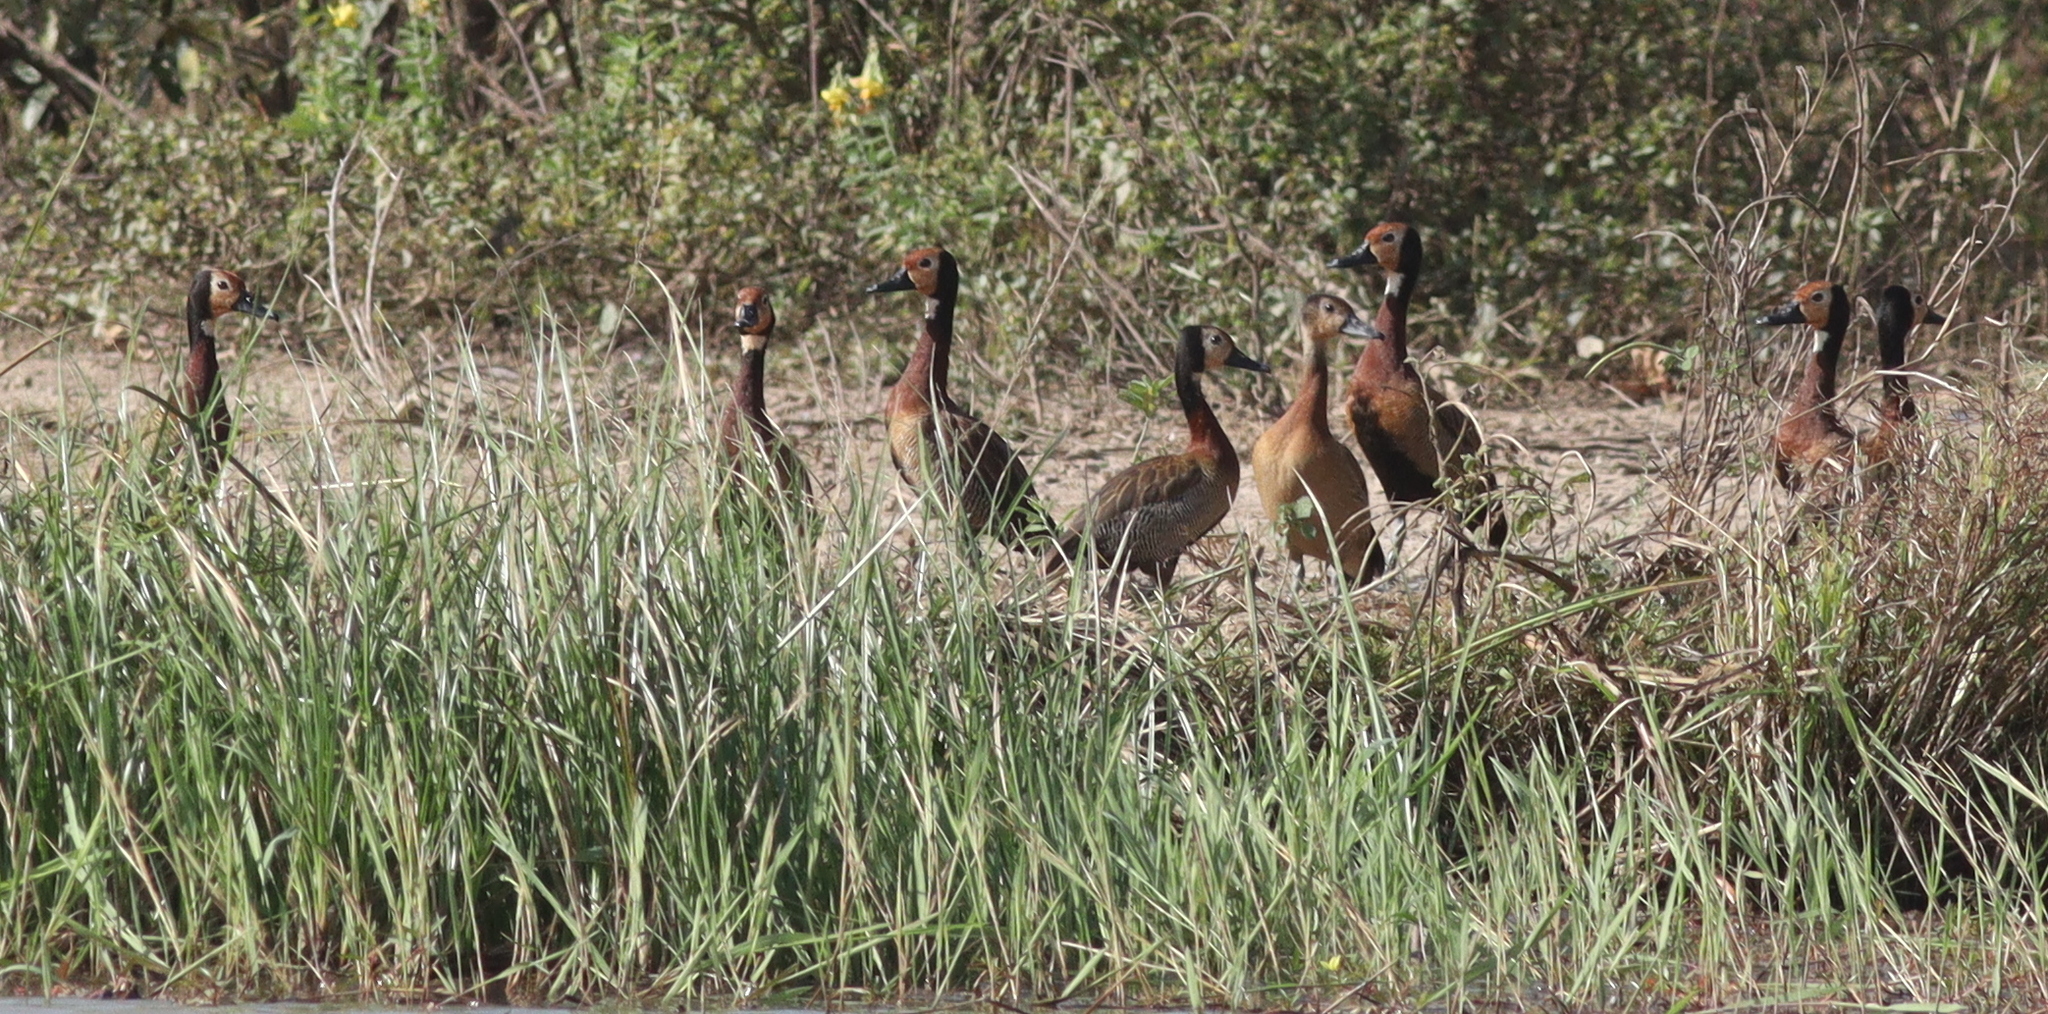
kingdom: Animalia
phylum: Chordata
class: Aves
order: Anseriformes
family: Anatidae
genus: Dendrocygna
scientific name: Dendrocygna viduata
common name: White-faced whistling duck
